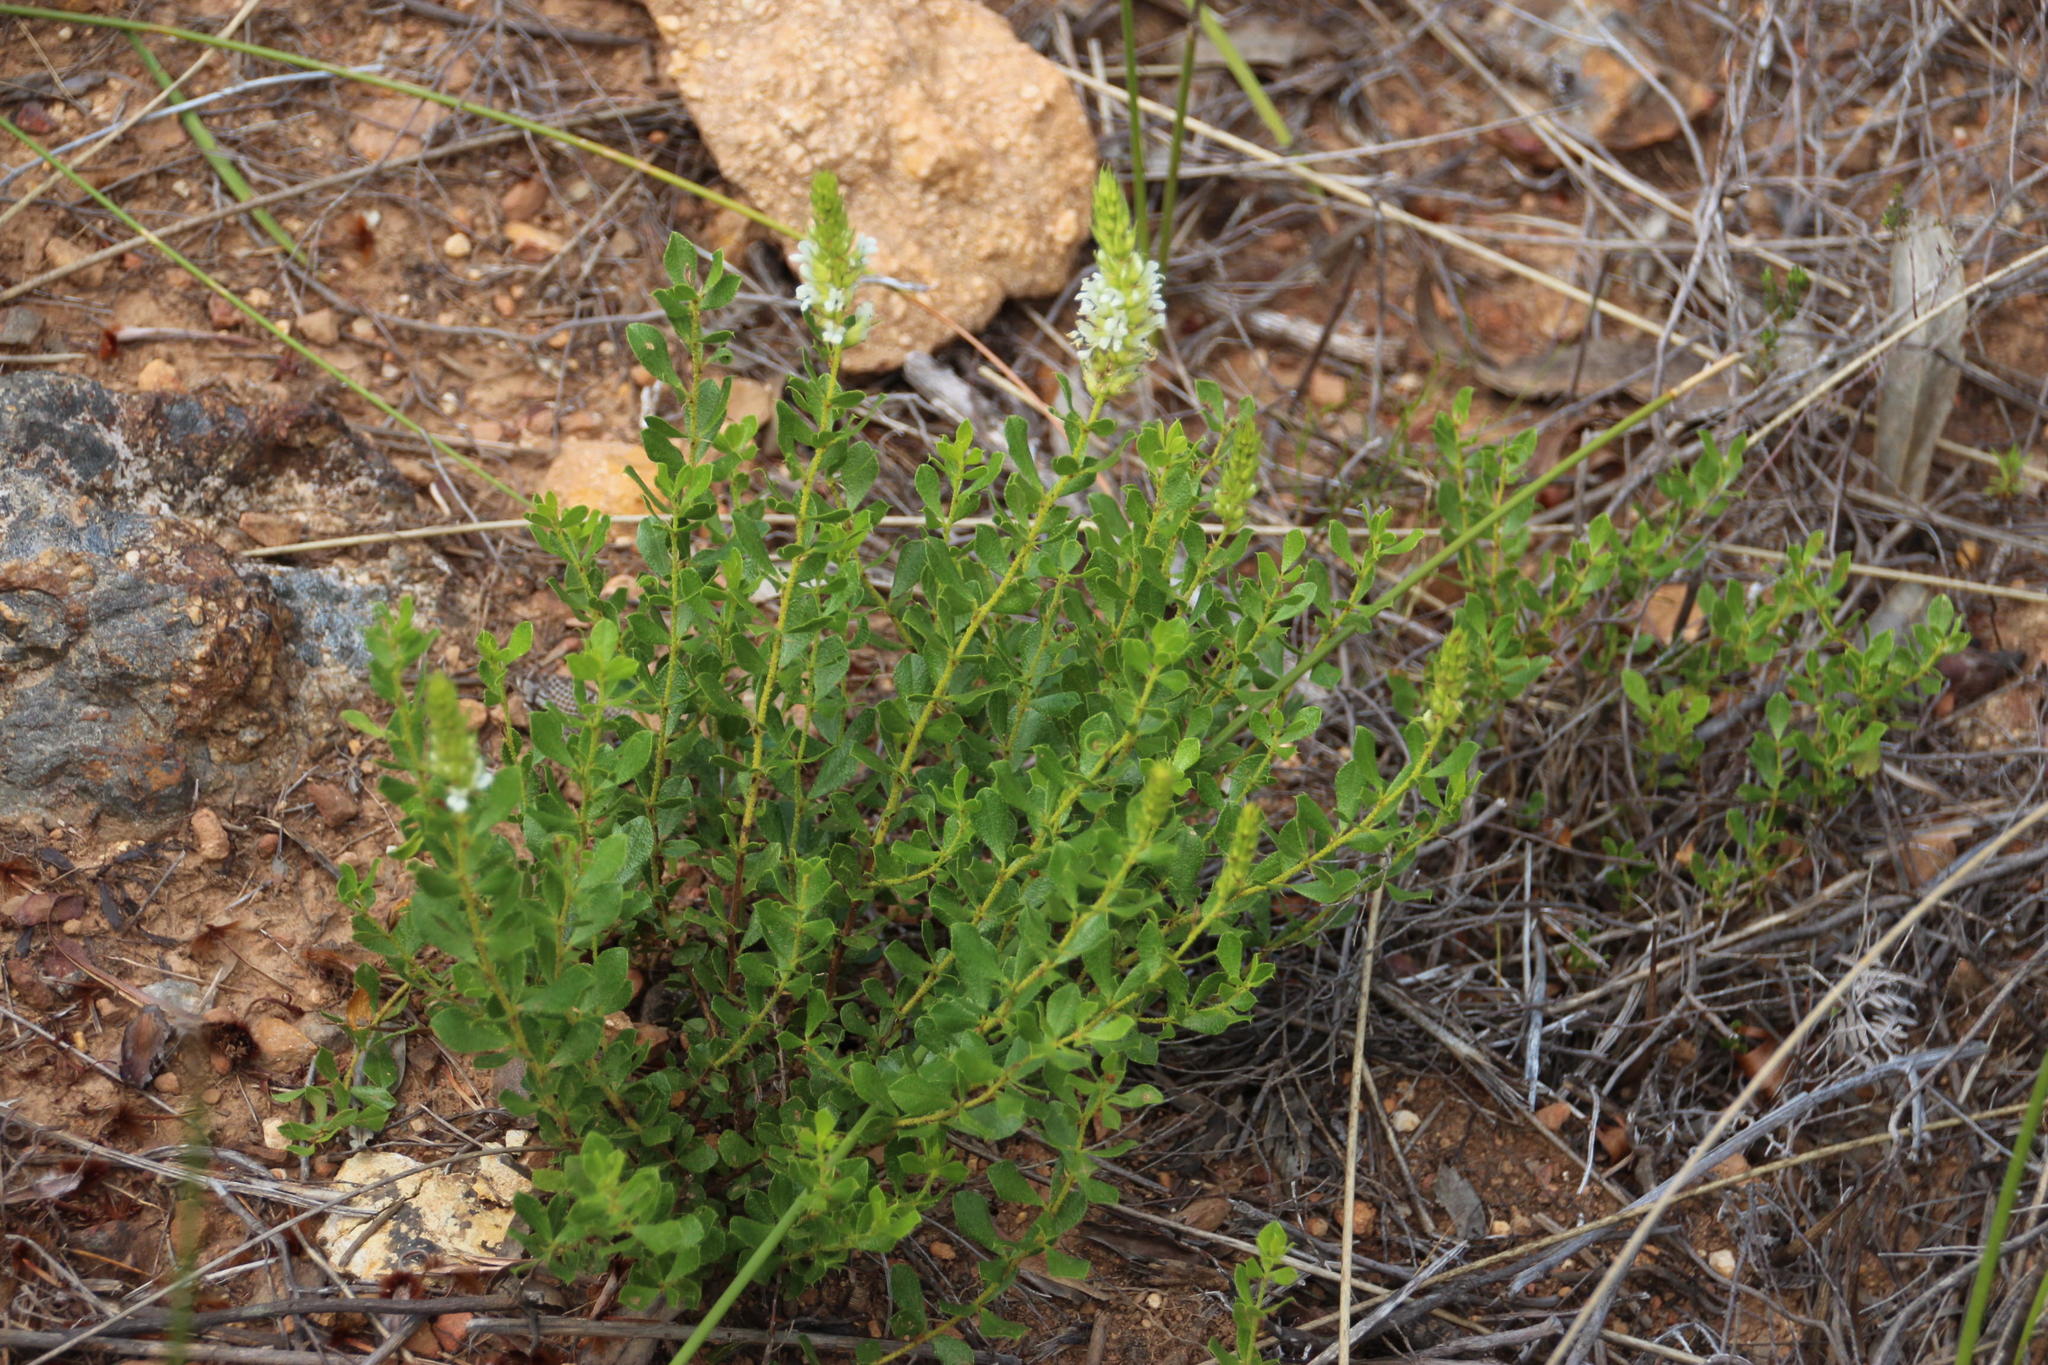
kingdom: Plantae
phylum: Tracheophyta
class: Magnoliopsida
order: Fabales
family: Fabaceae
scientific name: Fabaceae
